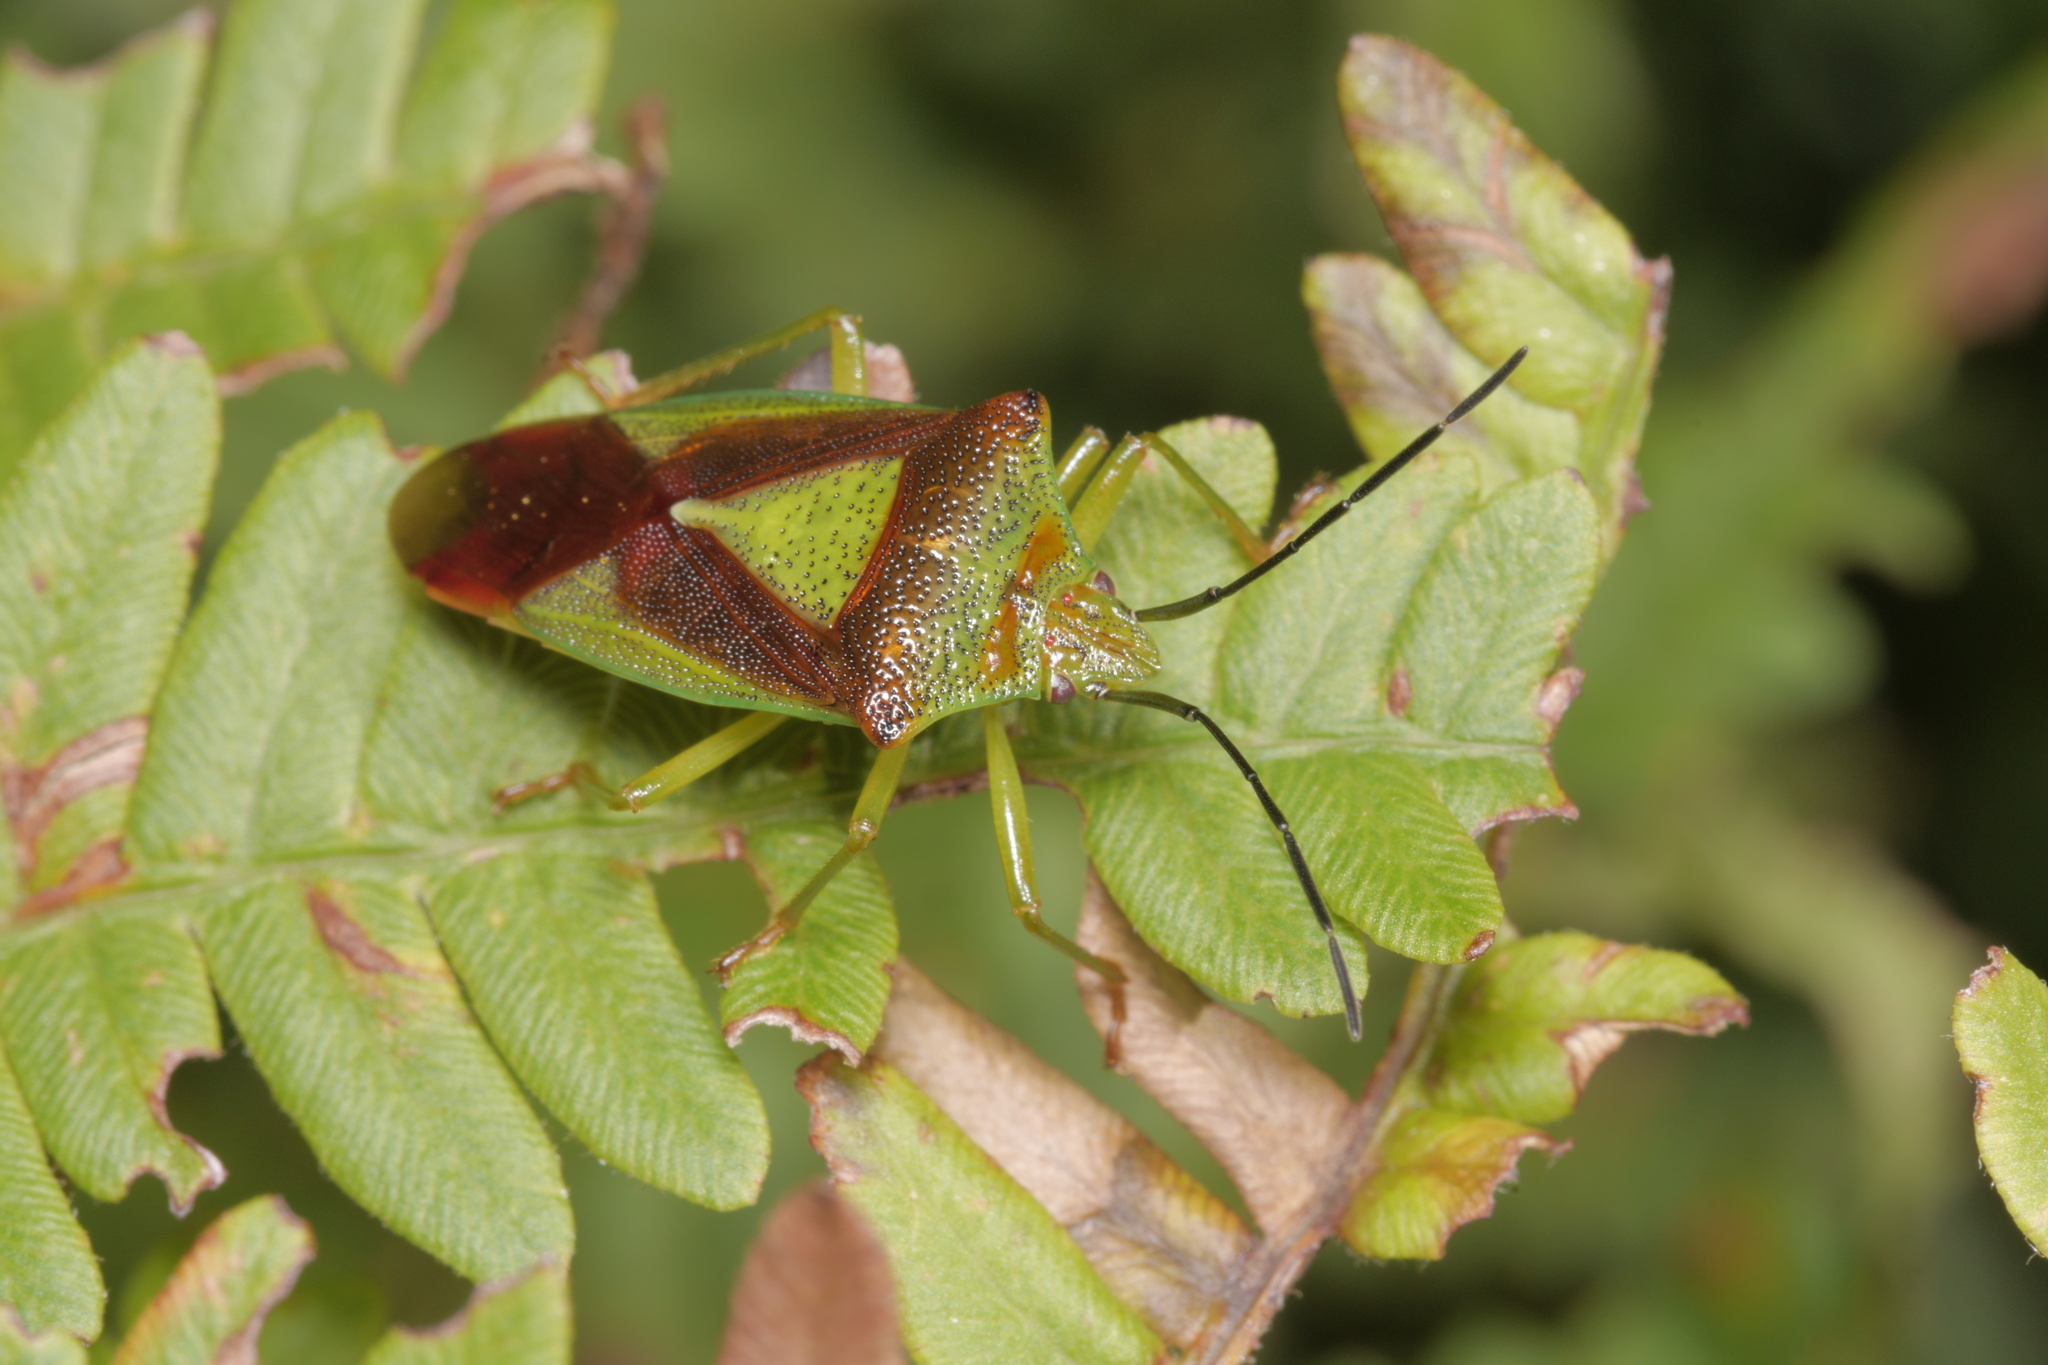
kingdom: Animalia
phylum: Arthropoda
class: Insecta
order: Hemiptera
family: Acanthosomatidae
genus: Acanthosoma
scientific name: Acanthosoma haemorrhoidale
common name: Hawthorn shieldbug
